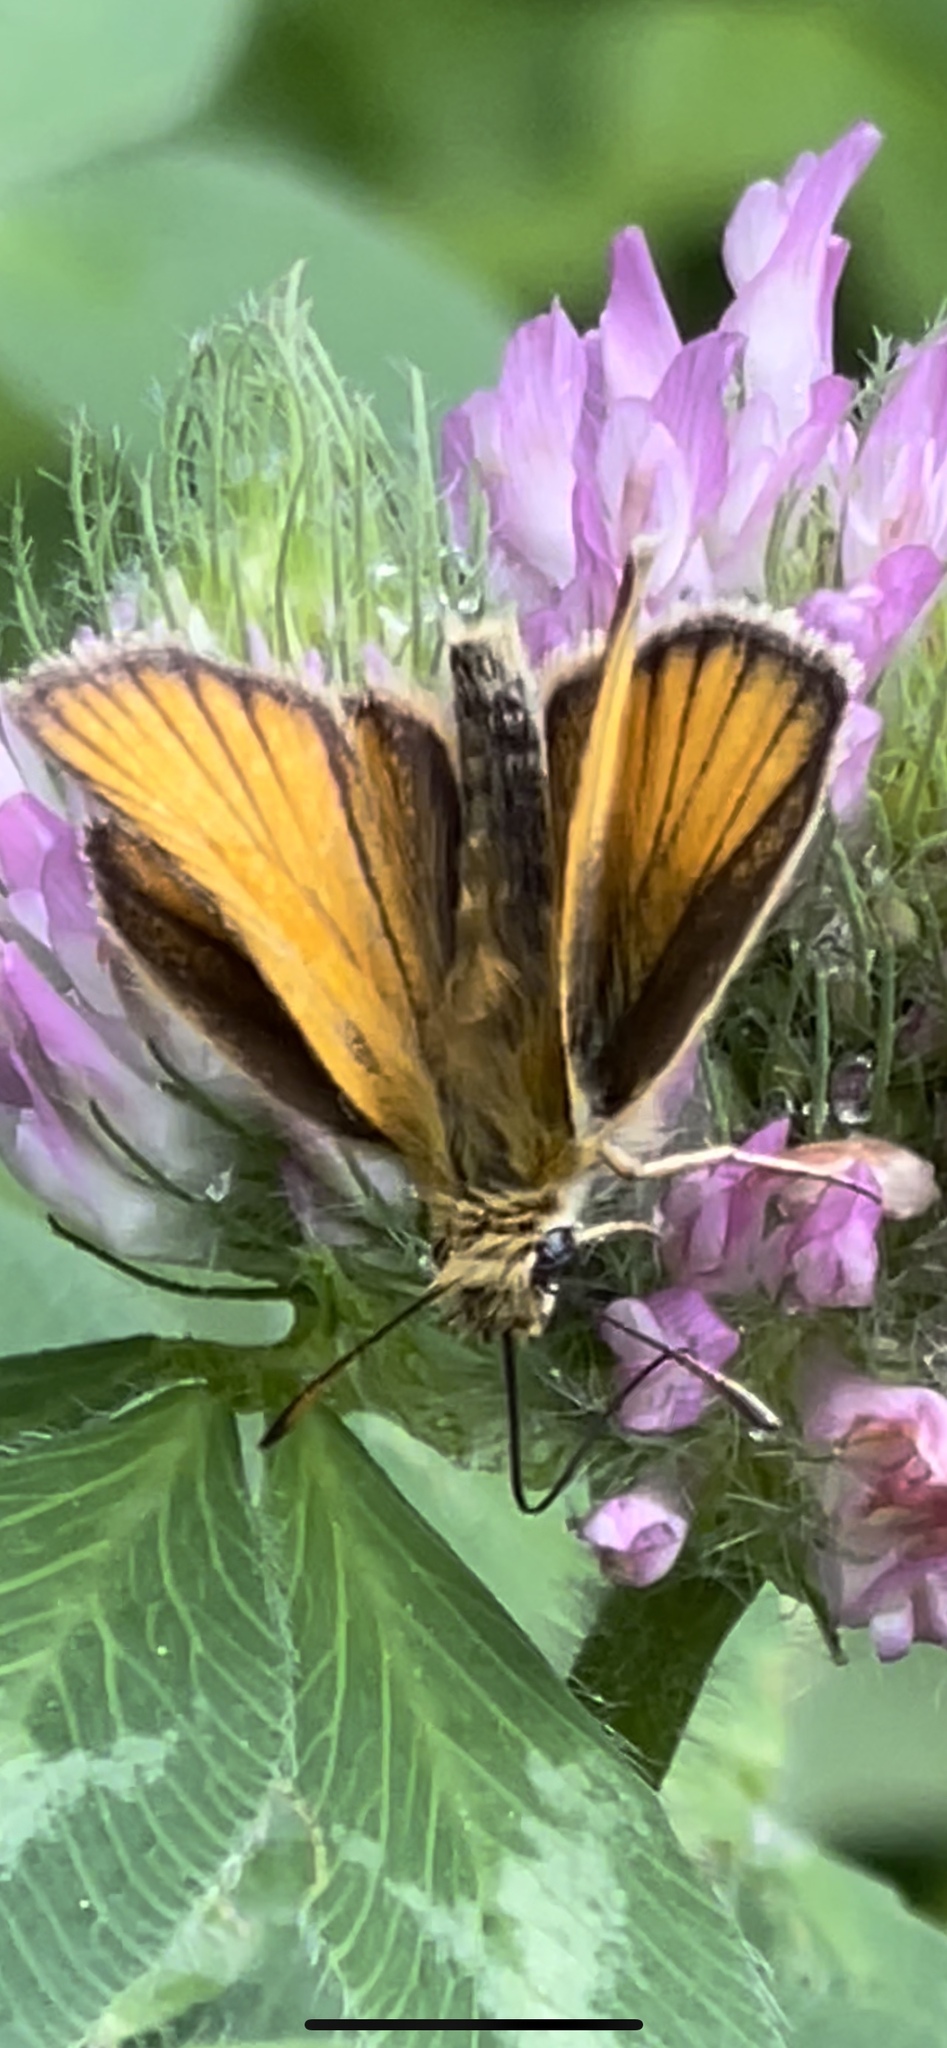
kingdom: Animalia
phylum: Arthropoda
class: Insecta
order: Lepidoptera
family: Hesperiidae
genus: Thymelicus
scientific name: Thymelicus lineola
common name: Essex skipper
